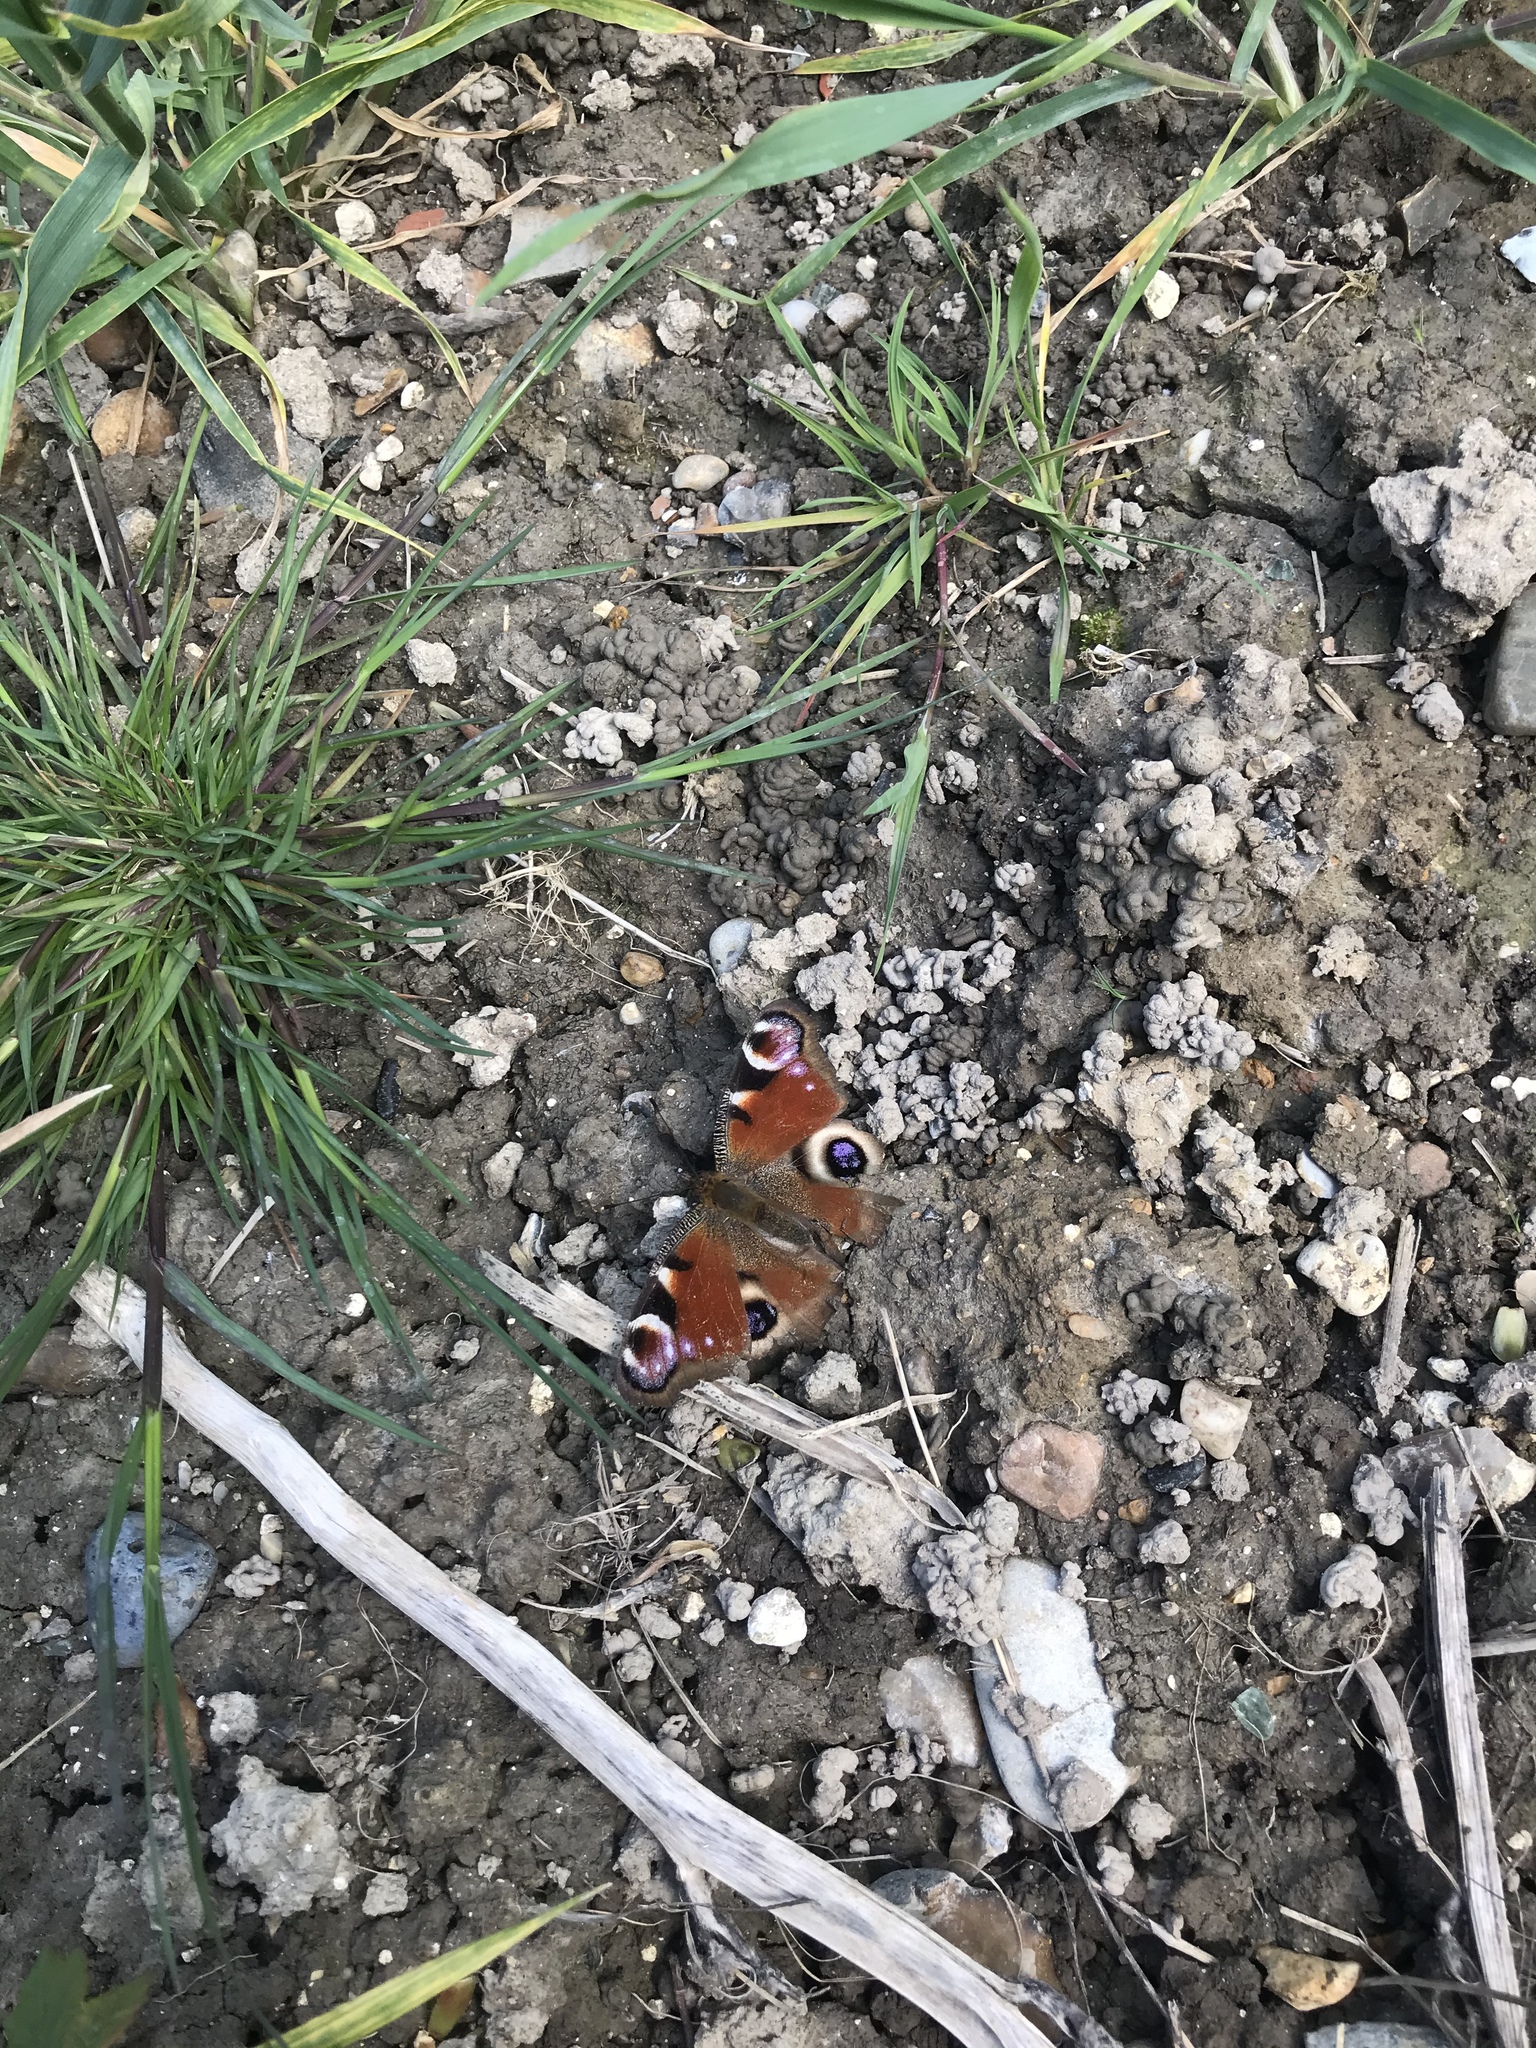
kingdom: Animalia
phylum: Arthropoda
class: Insecta
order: Lepidoptera
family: Nymphalidae
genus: Aglais
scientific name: Aglais io
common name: Peacock
